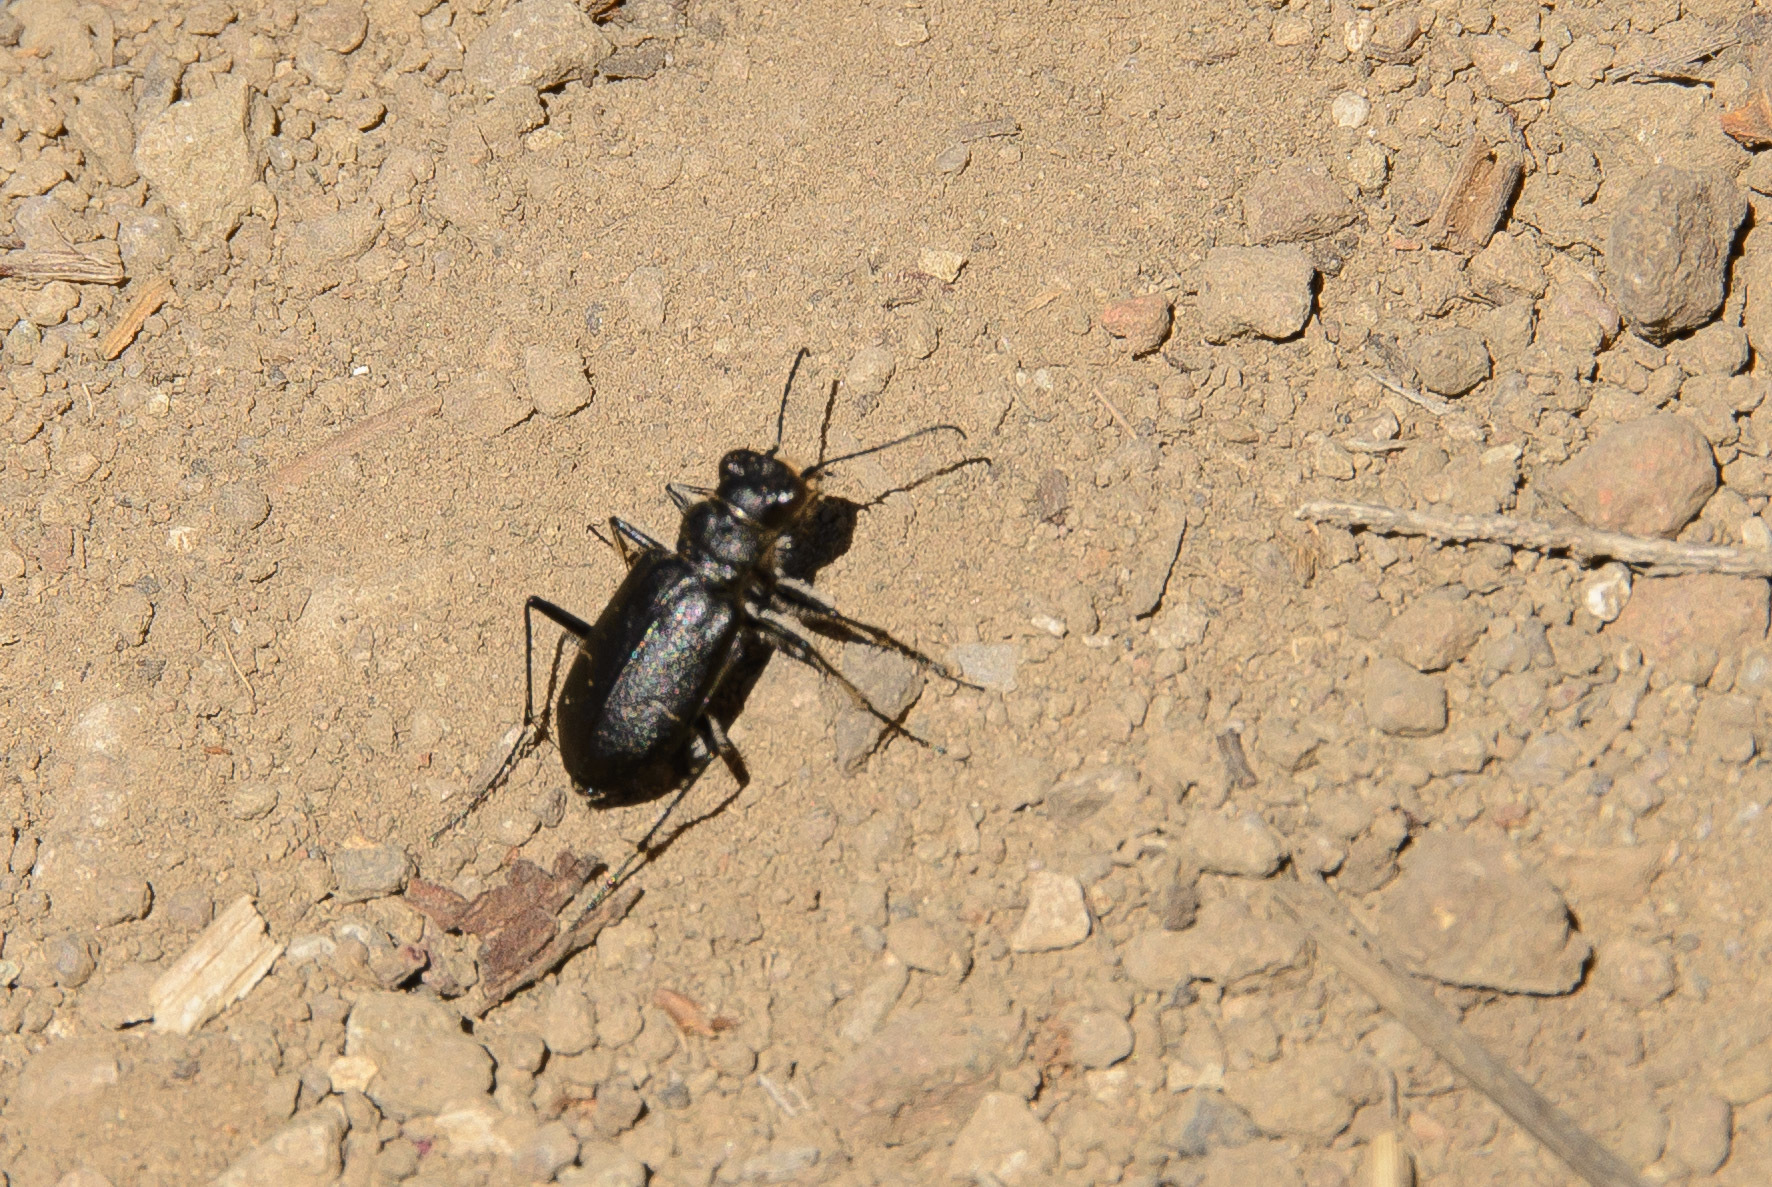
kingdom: Animalia
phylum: Arthropoda
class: Insecta
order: Coleoptera
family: Carabidae
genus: Cicindela
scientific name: Cicindela nebraskana
